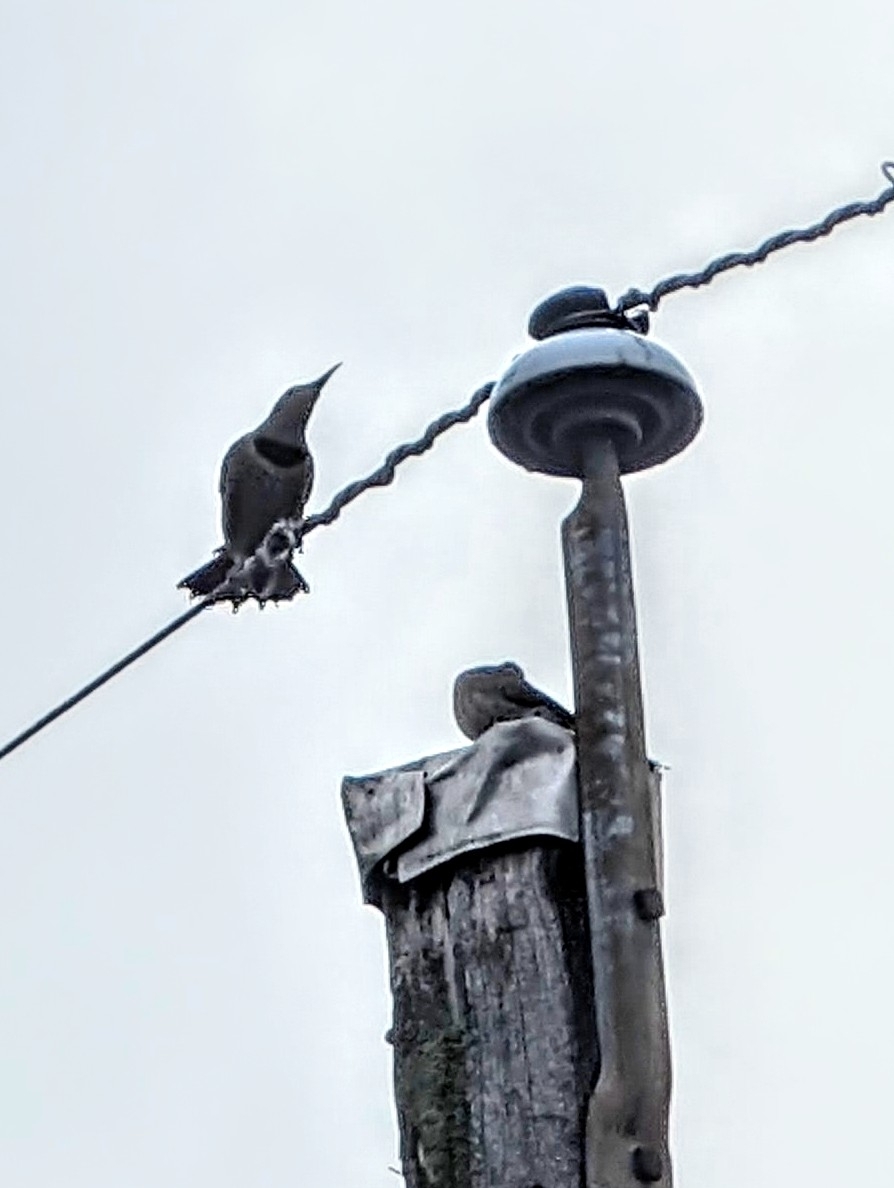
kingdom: Animalia
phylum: Chordata
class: Aves
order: Piciformes
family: Picidae
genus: Colaptes
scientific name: Colaptes auratus
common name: Northern flicker
